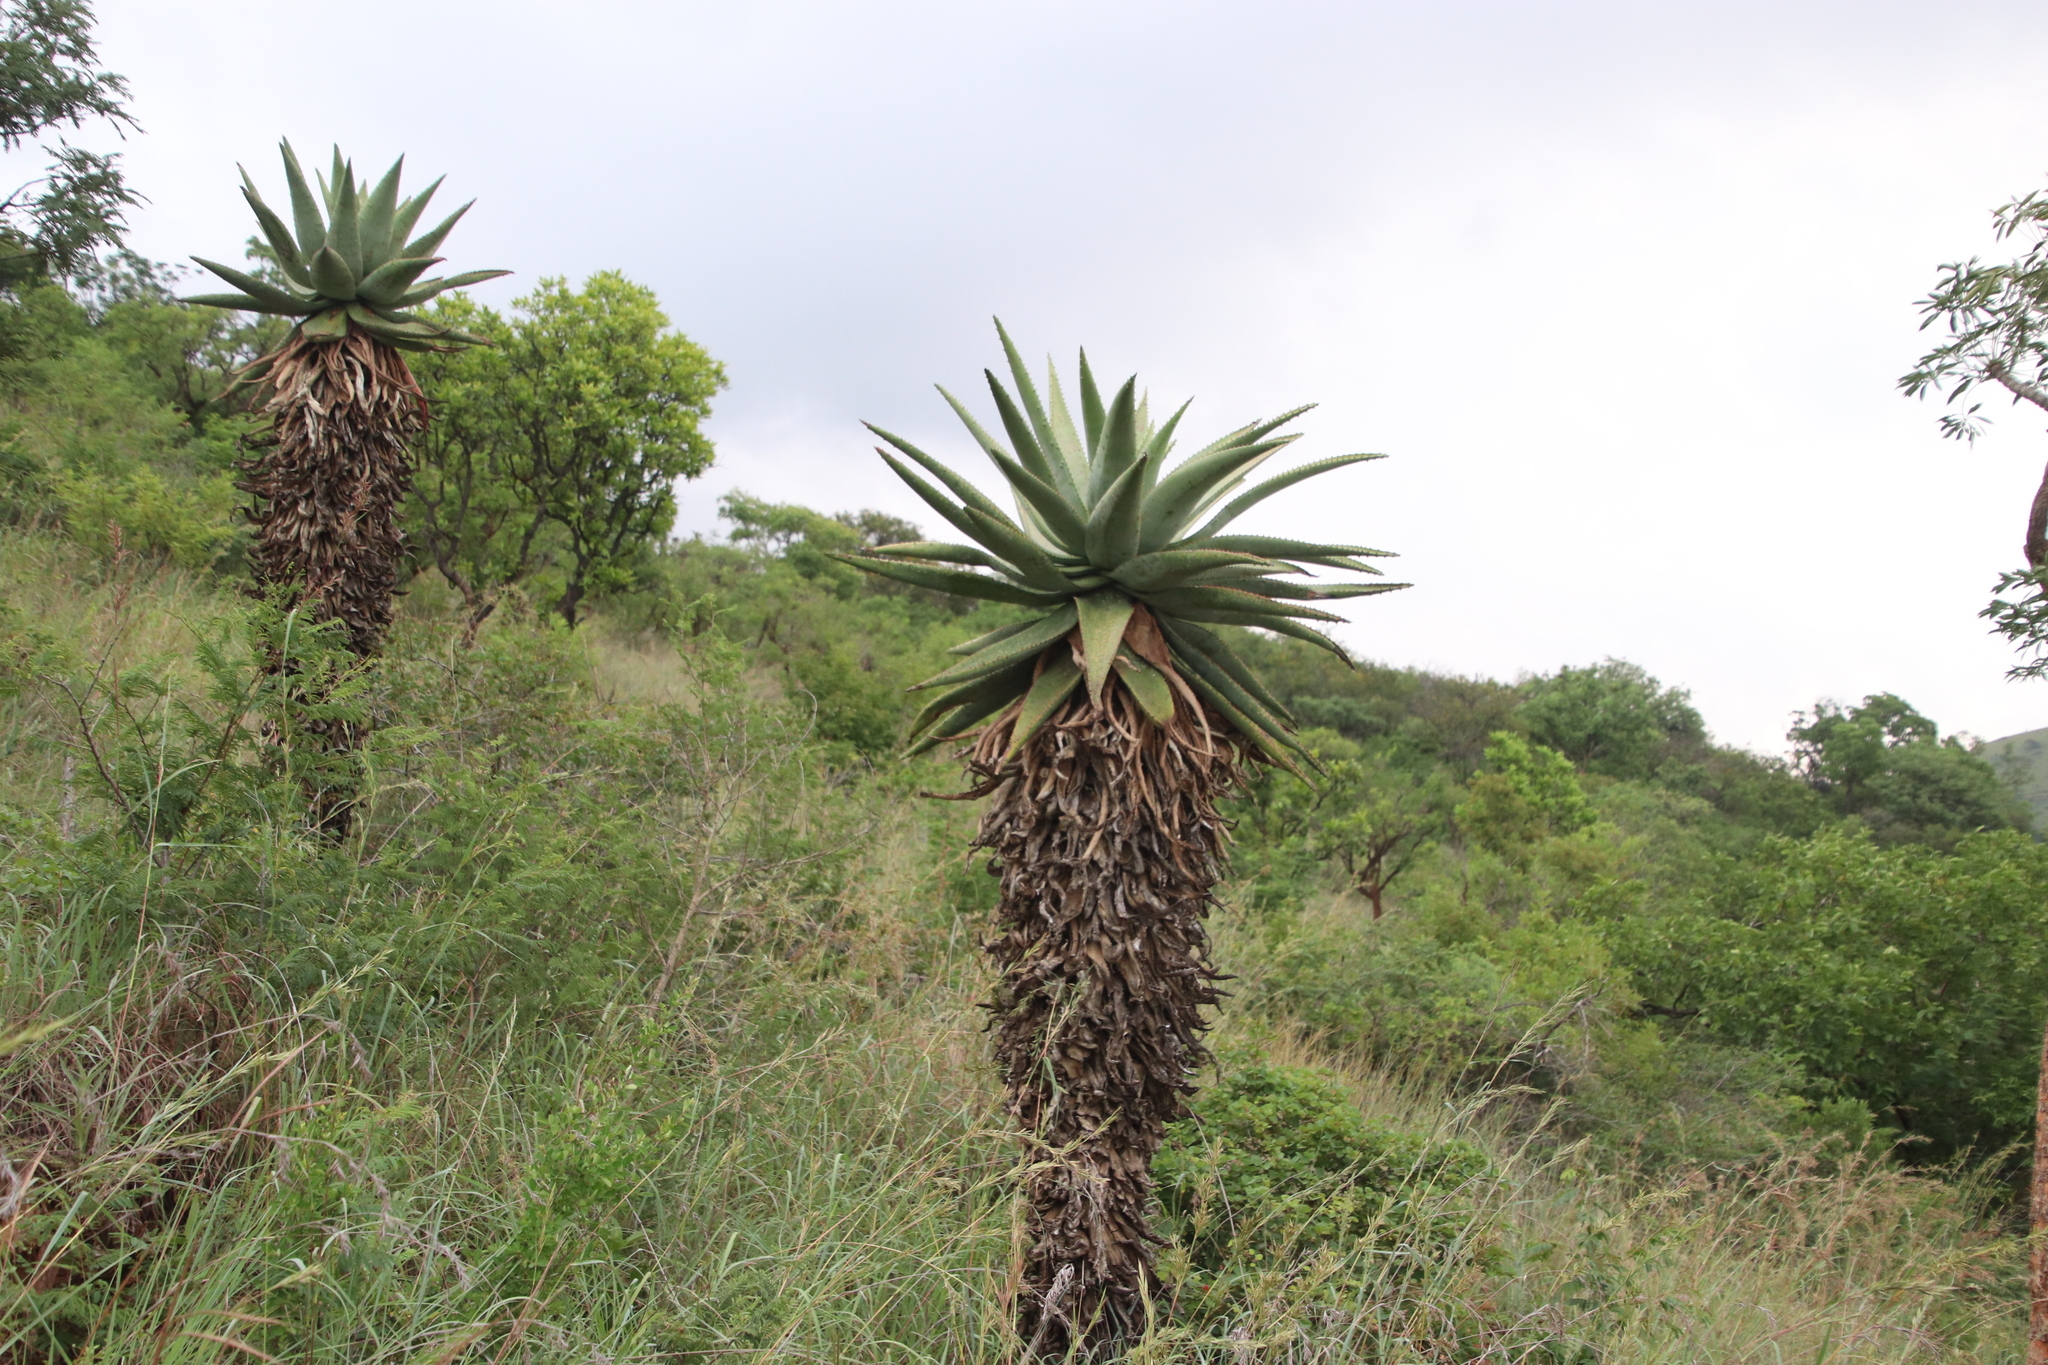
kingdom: Plantae
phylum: Tracheophyta
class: Liliopsida
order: Asparagales
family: Asphodelaceae
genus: Aloe
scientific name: Aloe marlothii
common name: Flat-flowered aloe
